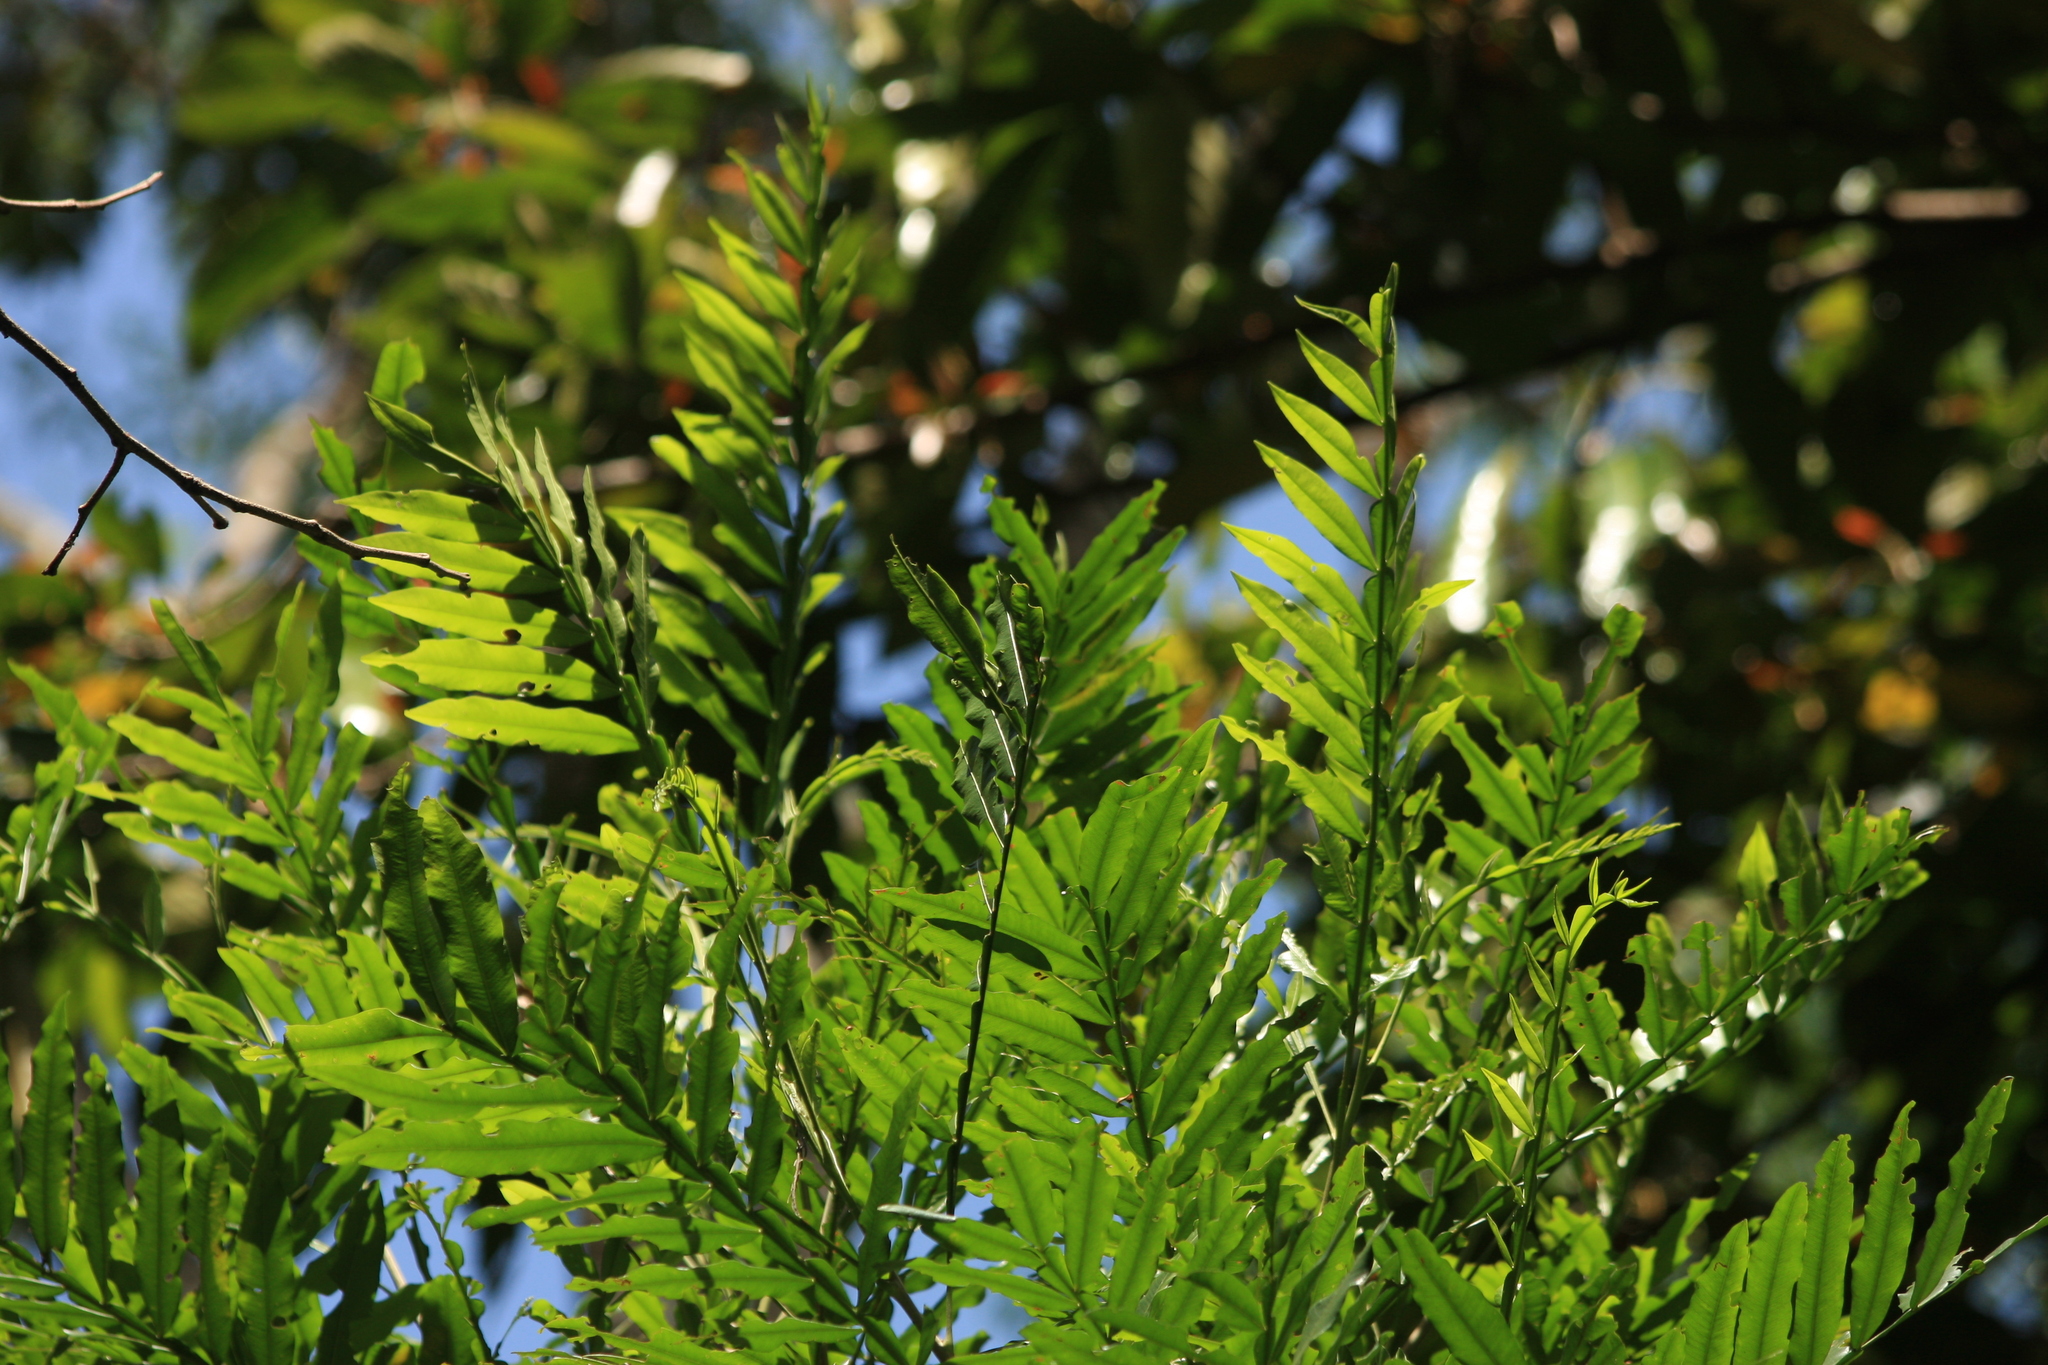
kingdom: Plantae
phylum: Tracheophyta
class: Magnoliopsida
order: Sapindales
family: Sapindaceae
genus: Filicium
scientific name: Filicium decipiens
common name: Ferntree
